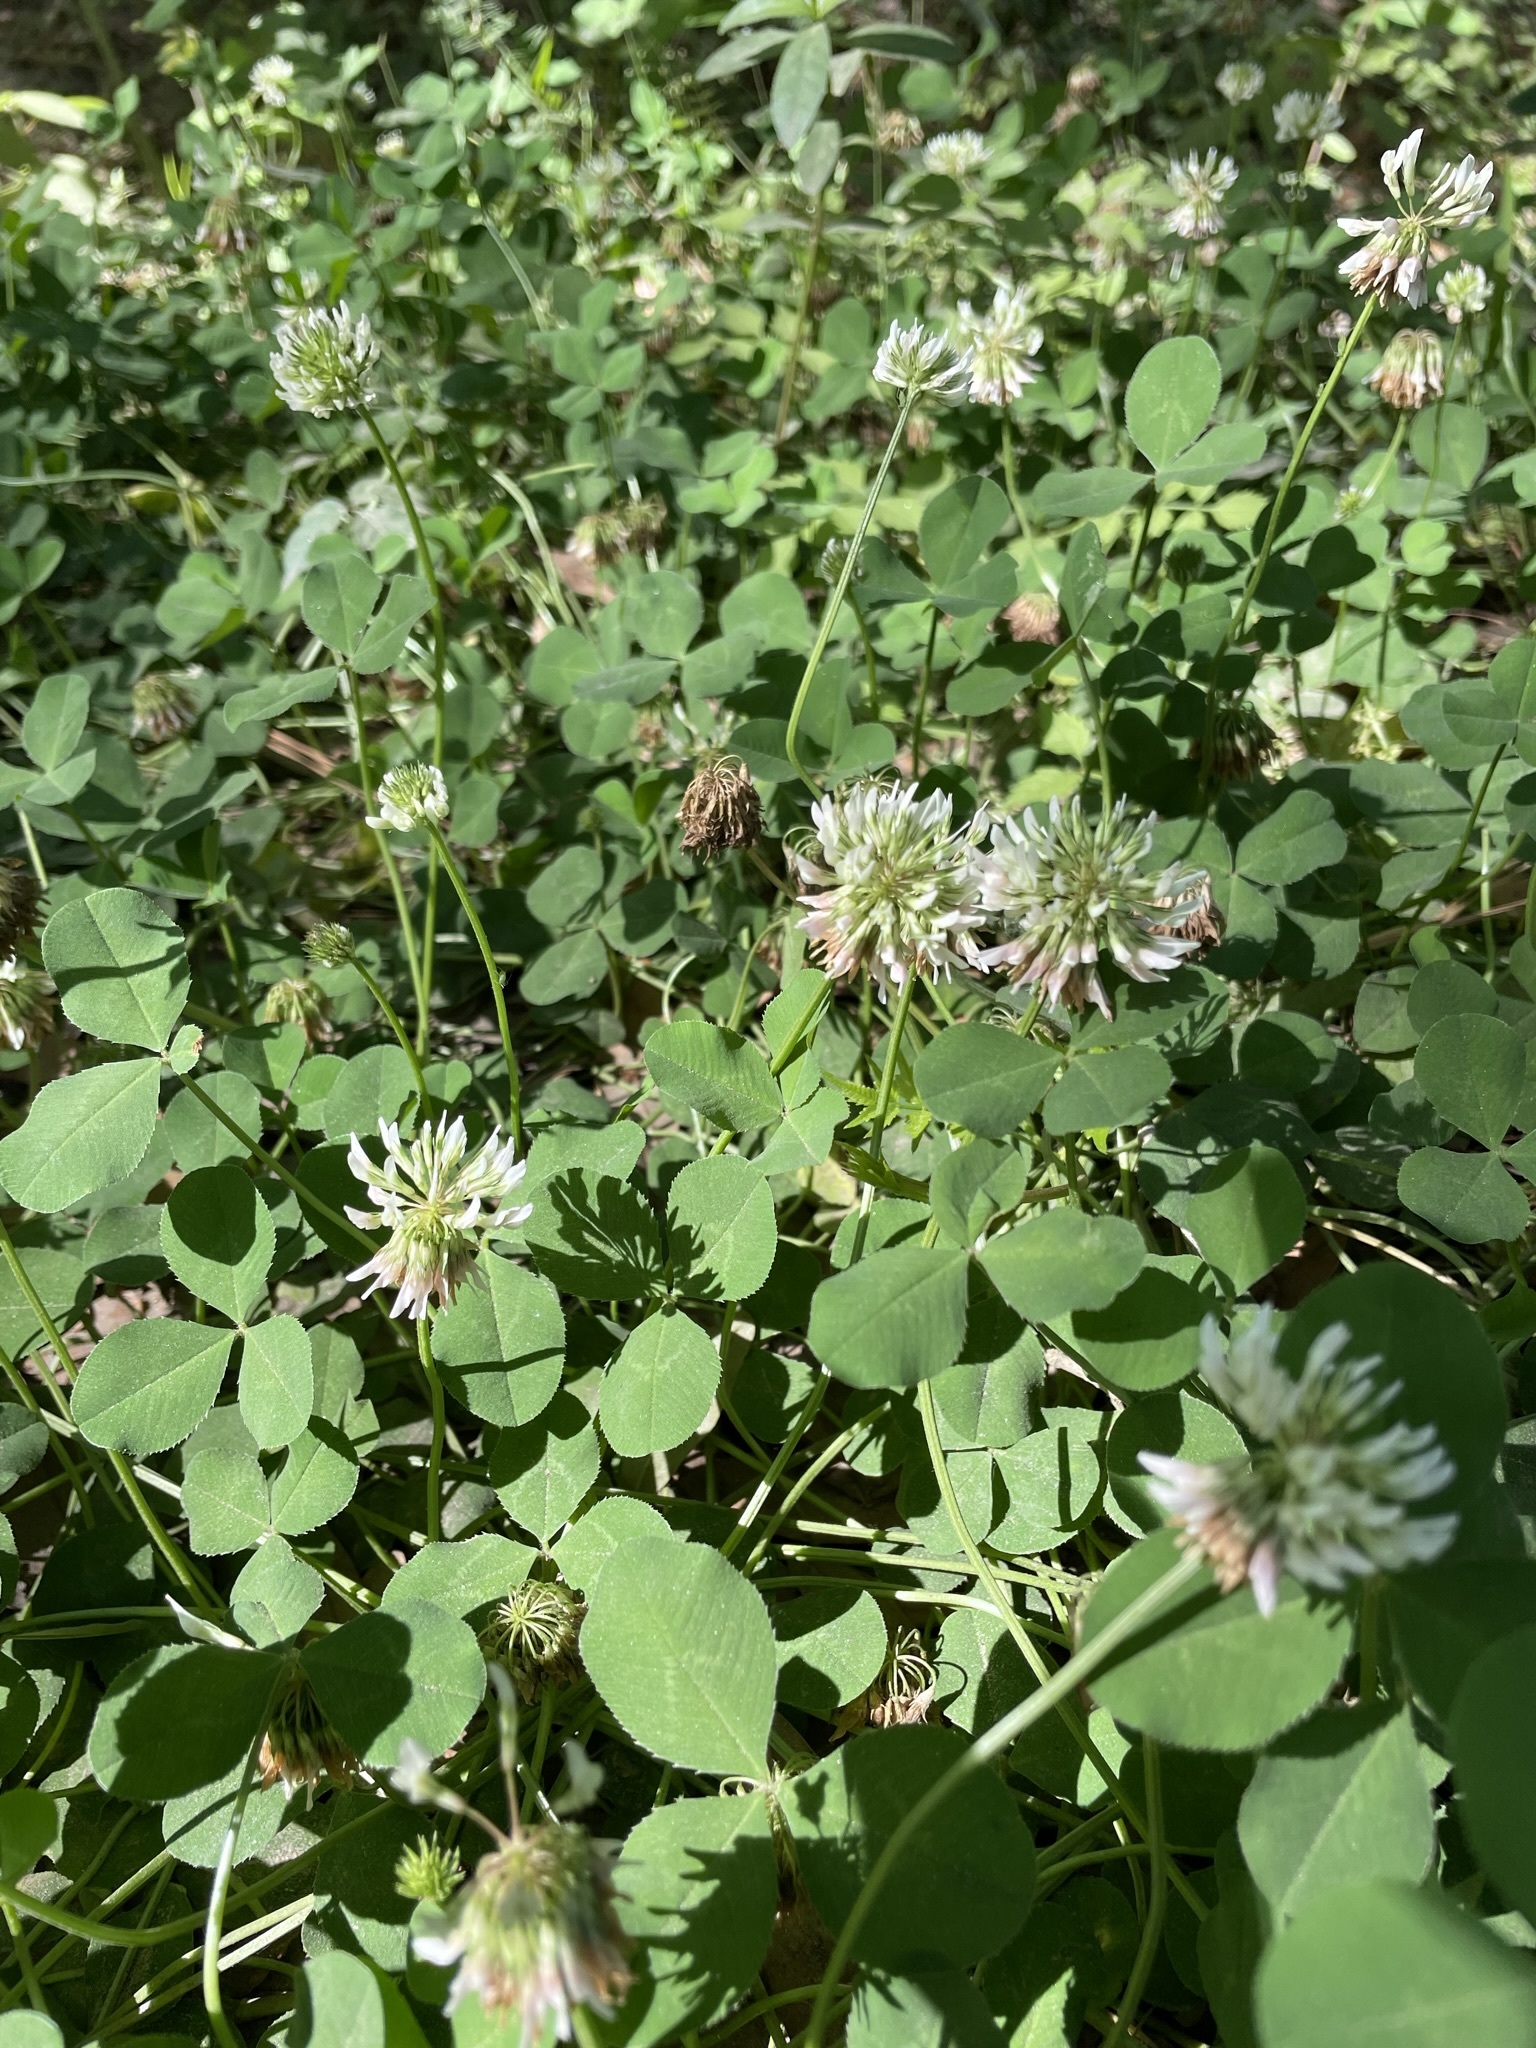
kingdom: Plantae
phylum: Tracheophyta
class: Magnoliopsida
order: Fabales
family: Fabaceae
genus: Trifolium
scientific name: Trifolium repens
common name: White clover
